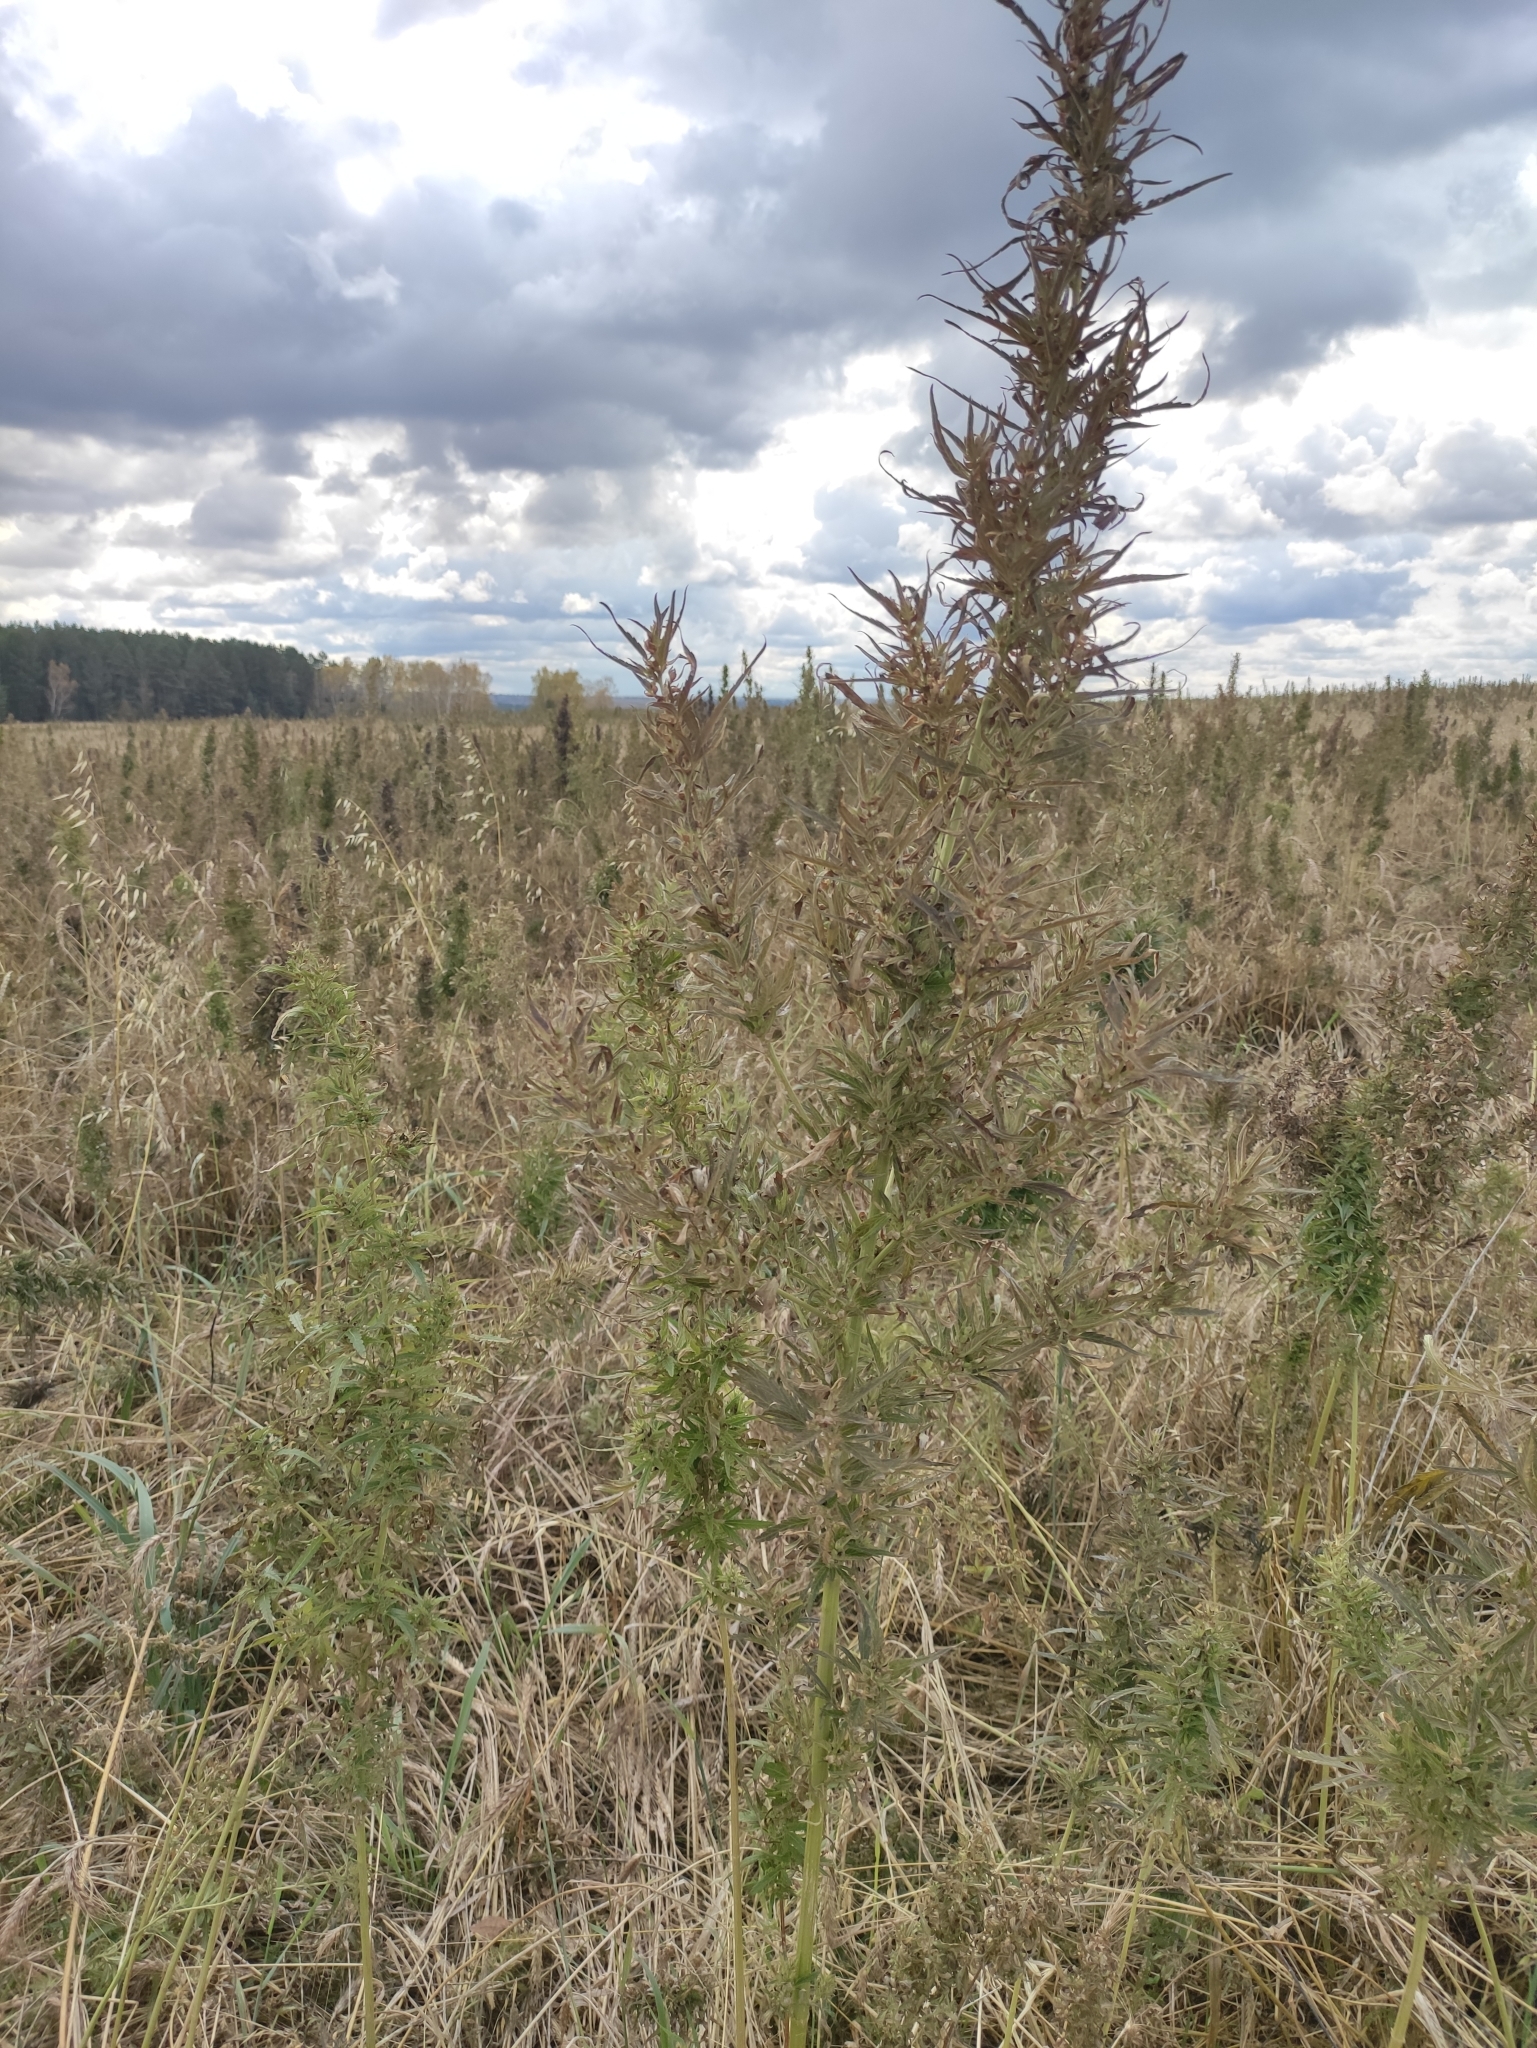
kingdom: Plantae
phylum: Tracheophyta
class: Magnoliopsida
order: Rosales
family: Cannabaceae
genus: Cannabis
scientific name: Cannabis sativa
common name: Hemp
